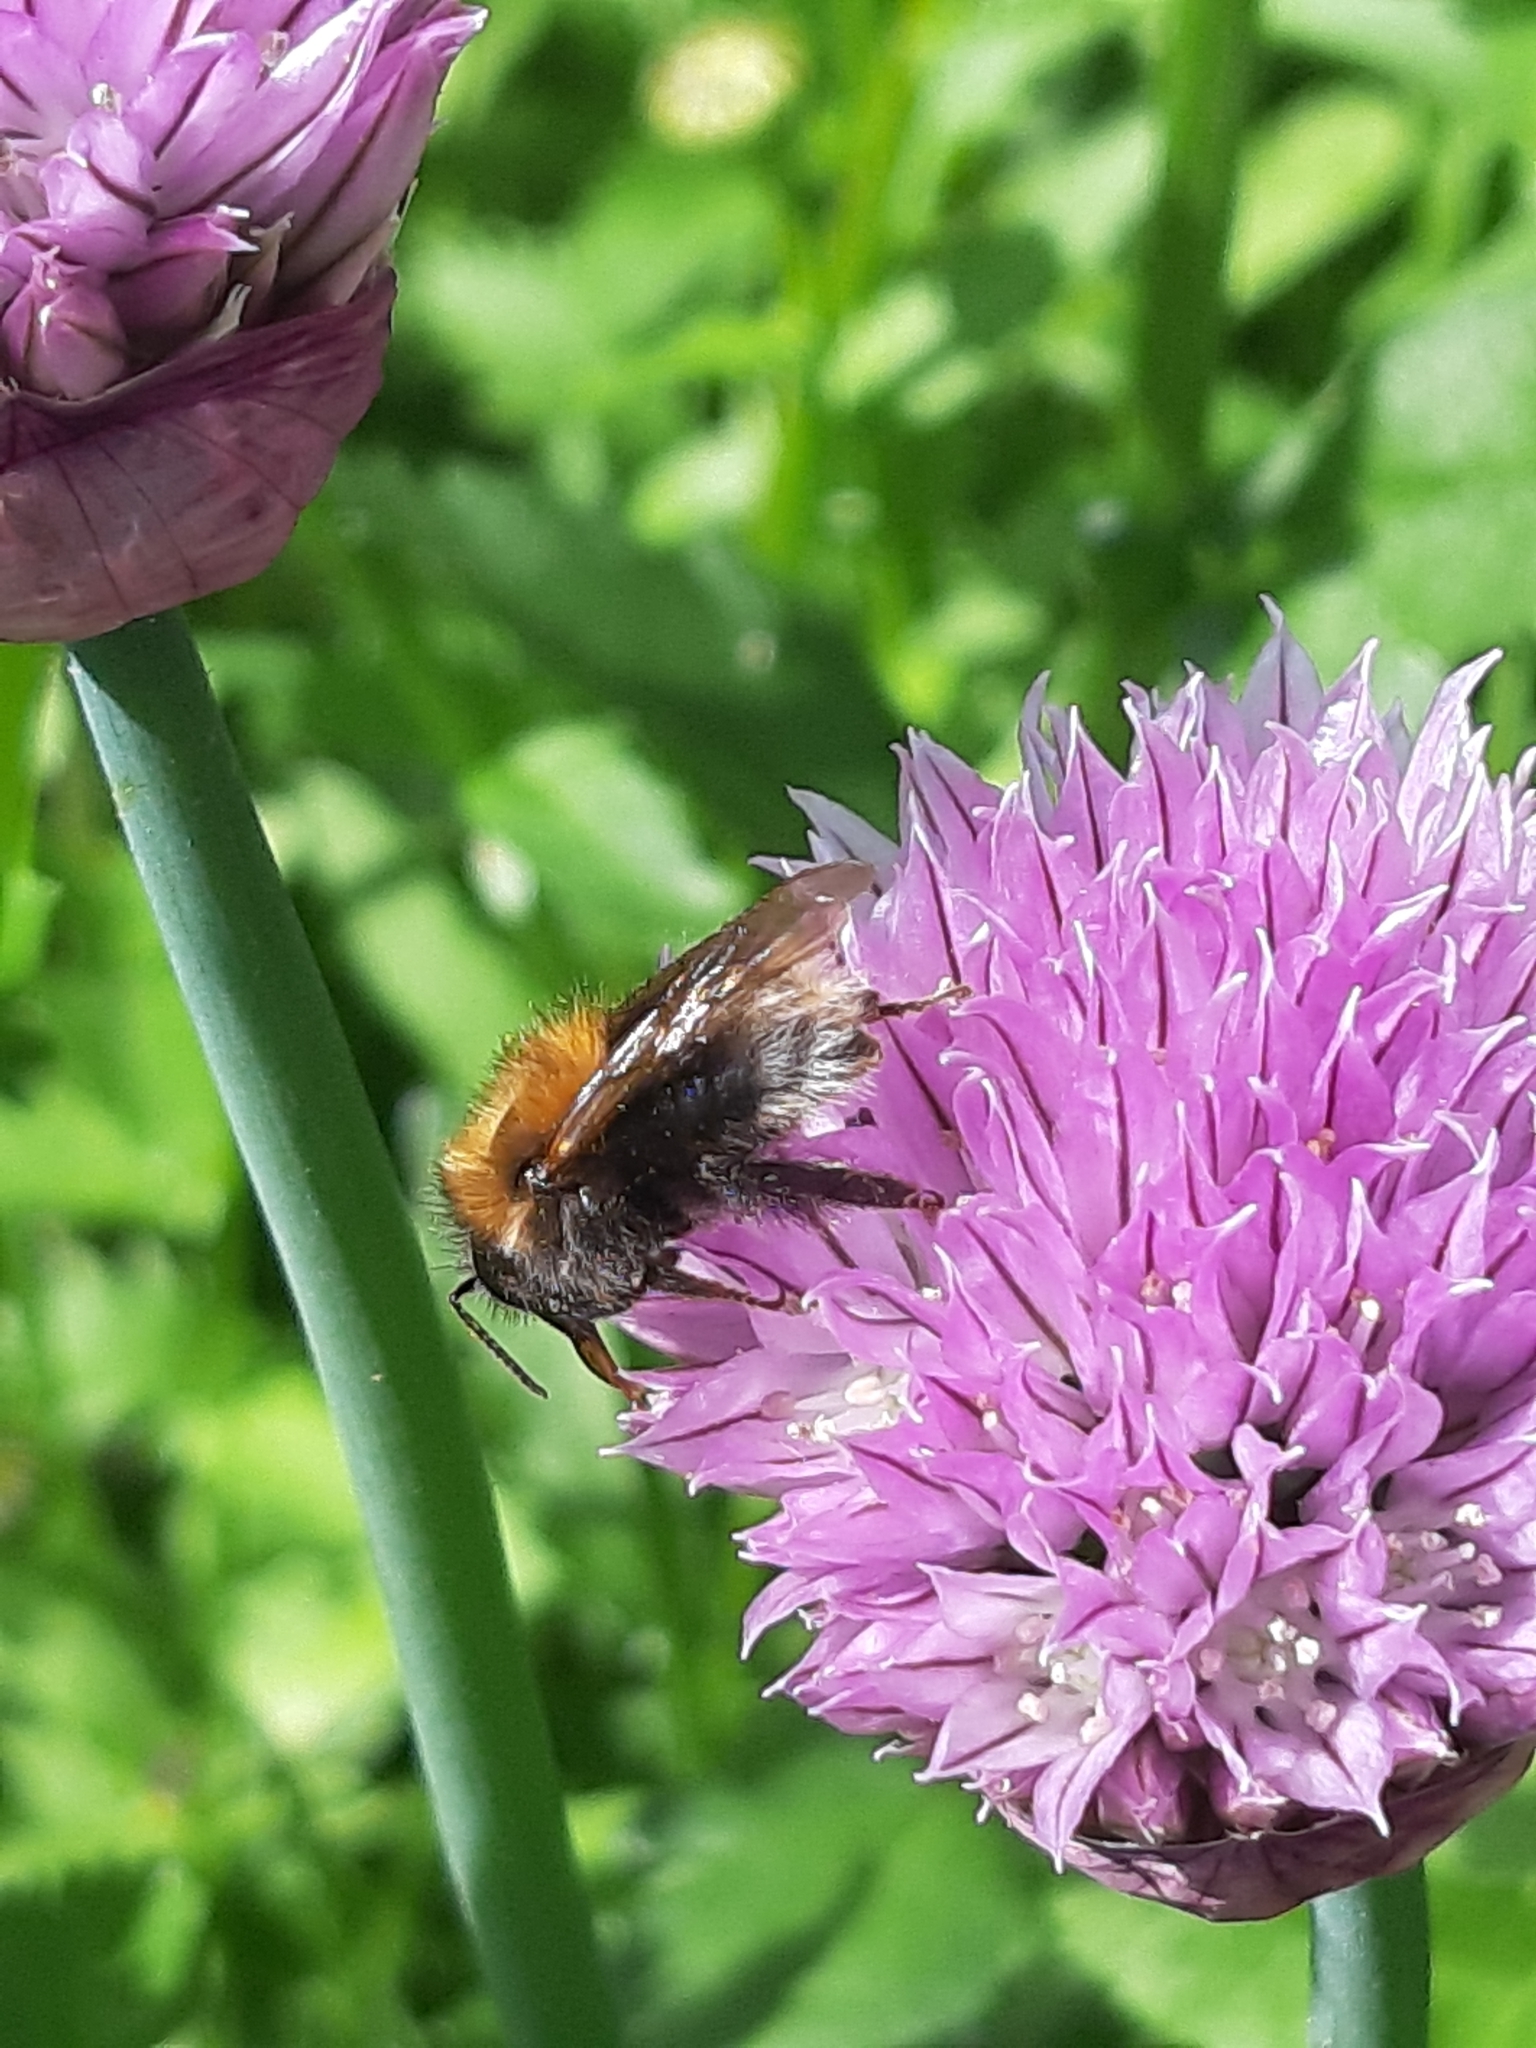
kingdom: Animalia
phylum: Arthropoda
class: Insecta
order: Hymenoptera
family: Apidae
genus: Bombus
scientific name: Bombus hypnorum
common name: New garden bumblebee
